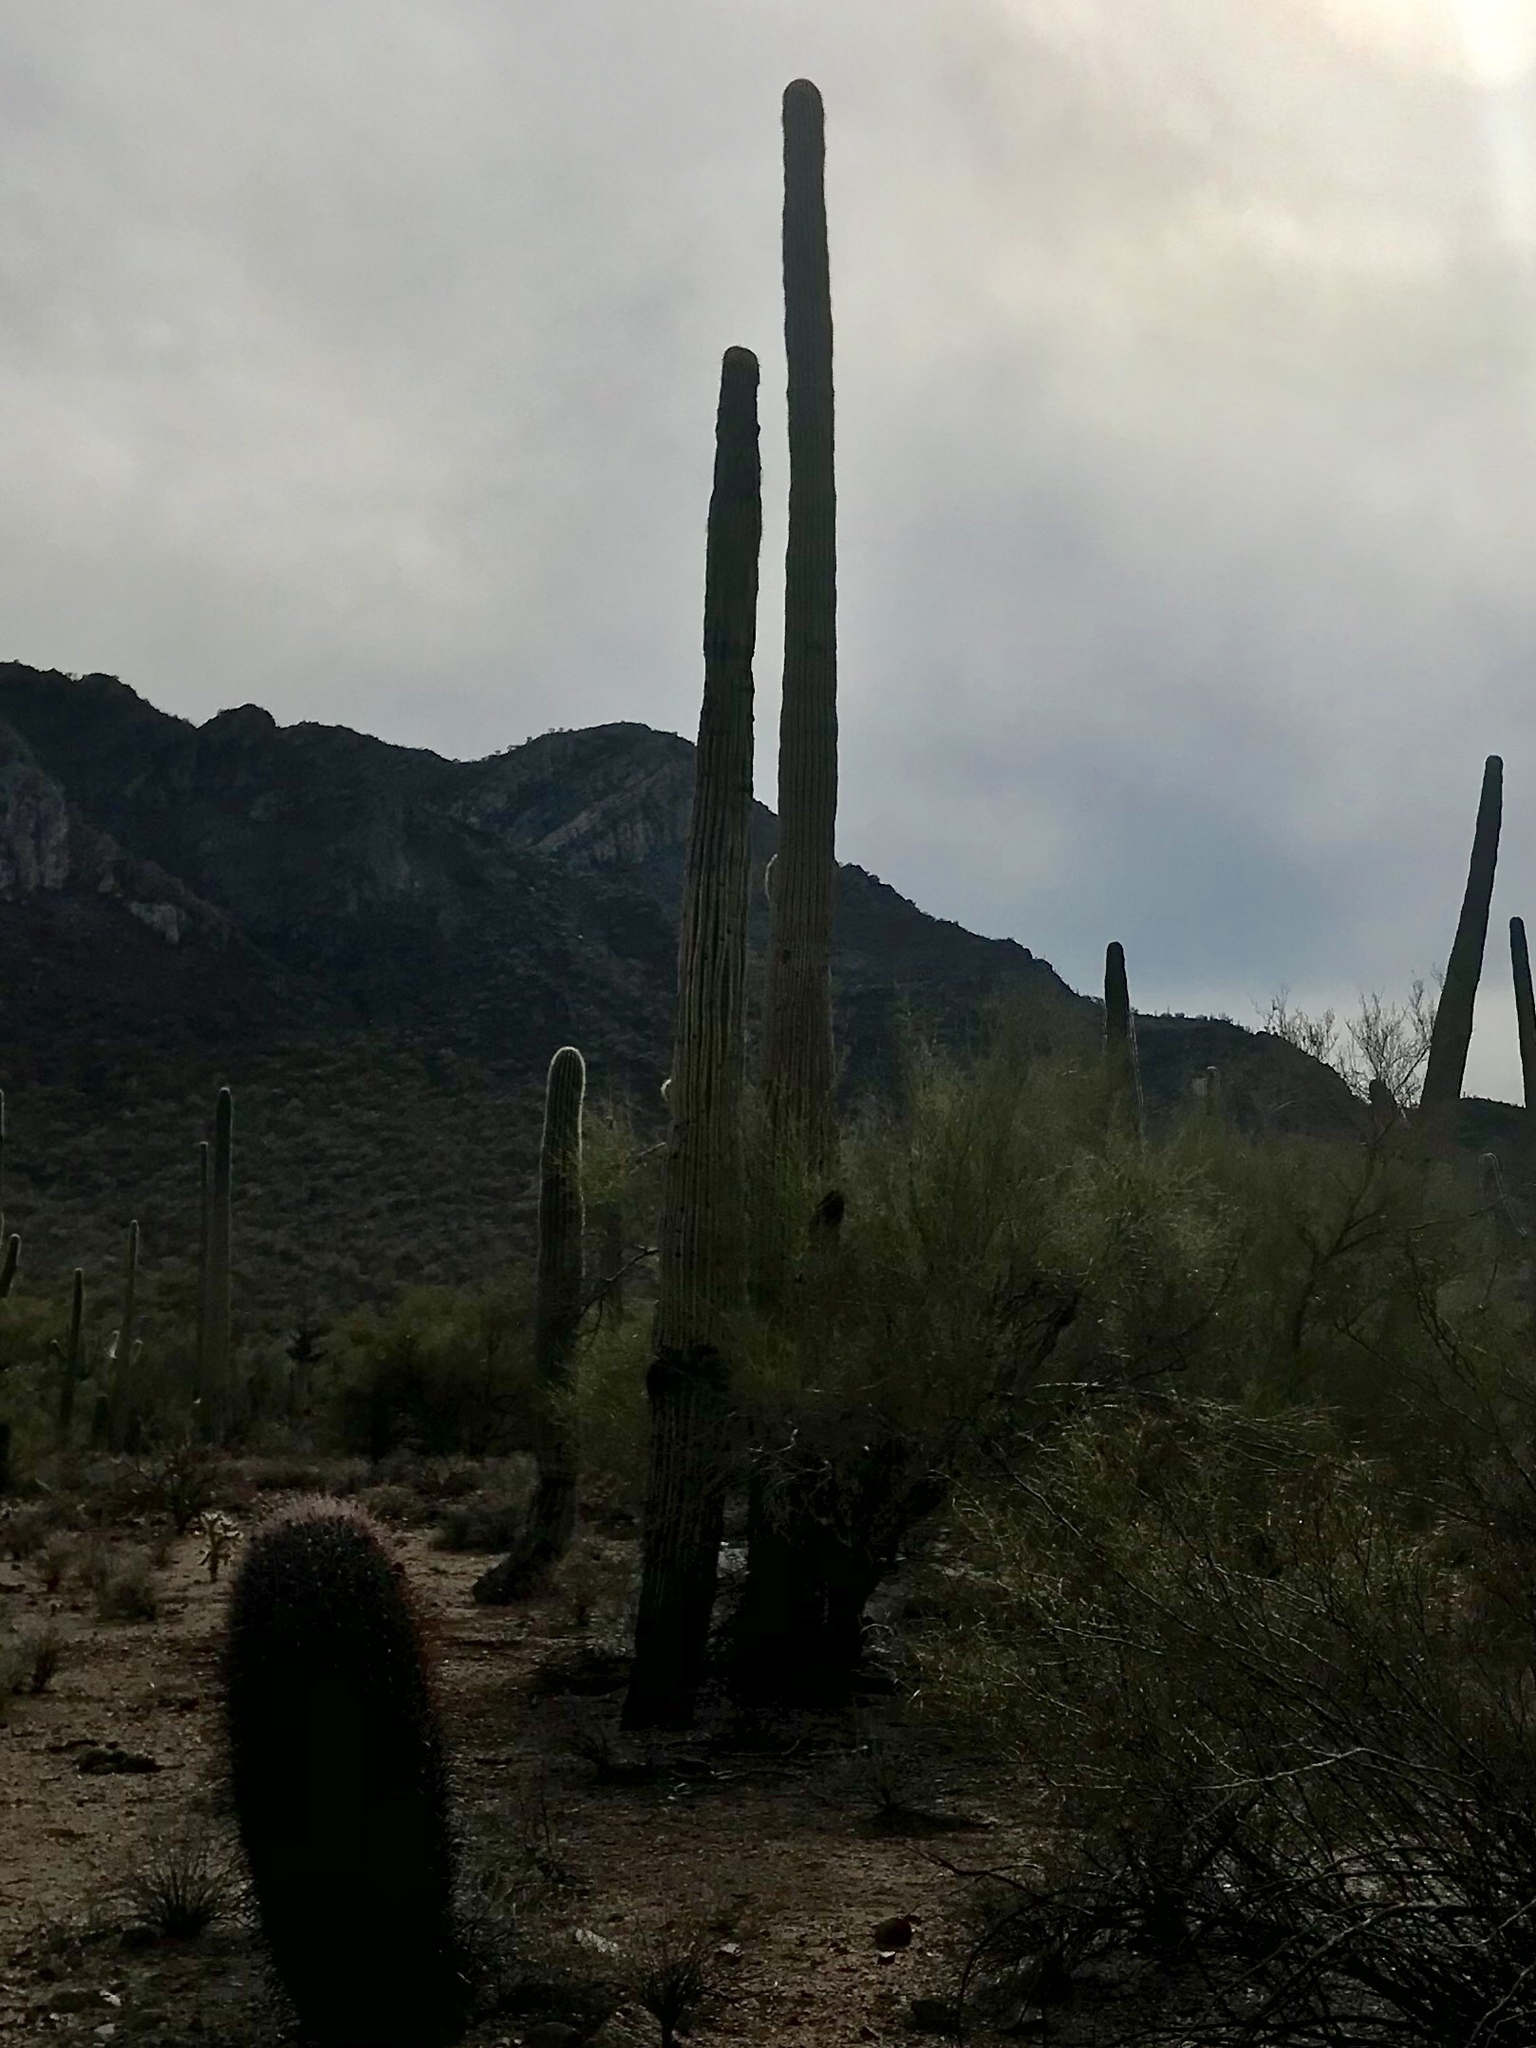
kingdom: Plantae
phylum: Tracheophyta
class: Magnoliopsida
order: Caryophyllales
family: Cactaceae
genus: Carnegiea
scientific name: Carnegiea gigantea
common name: Saguaro
